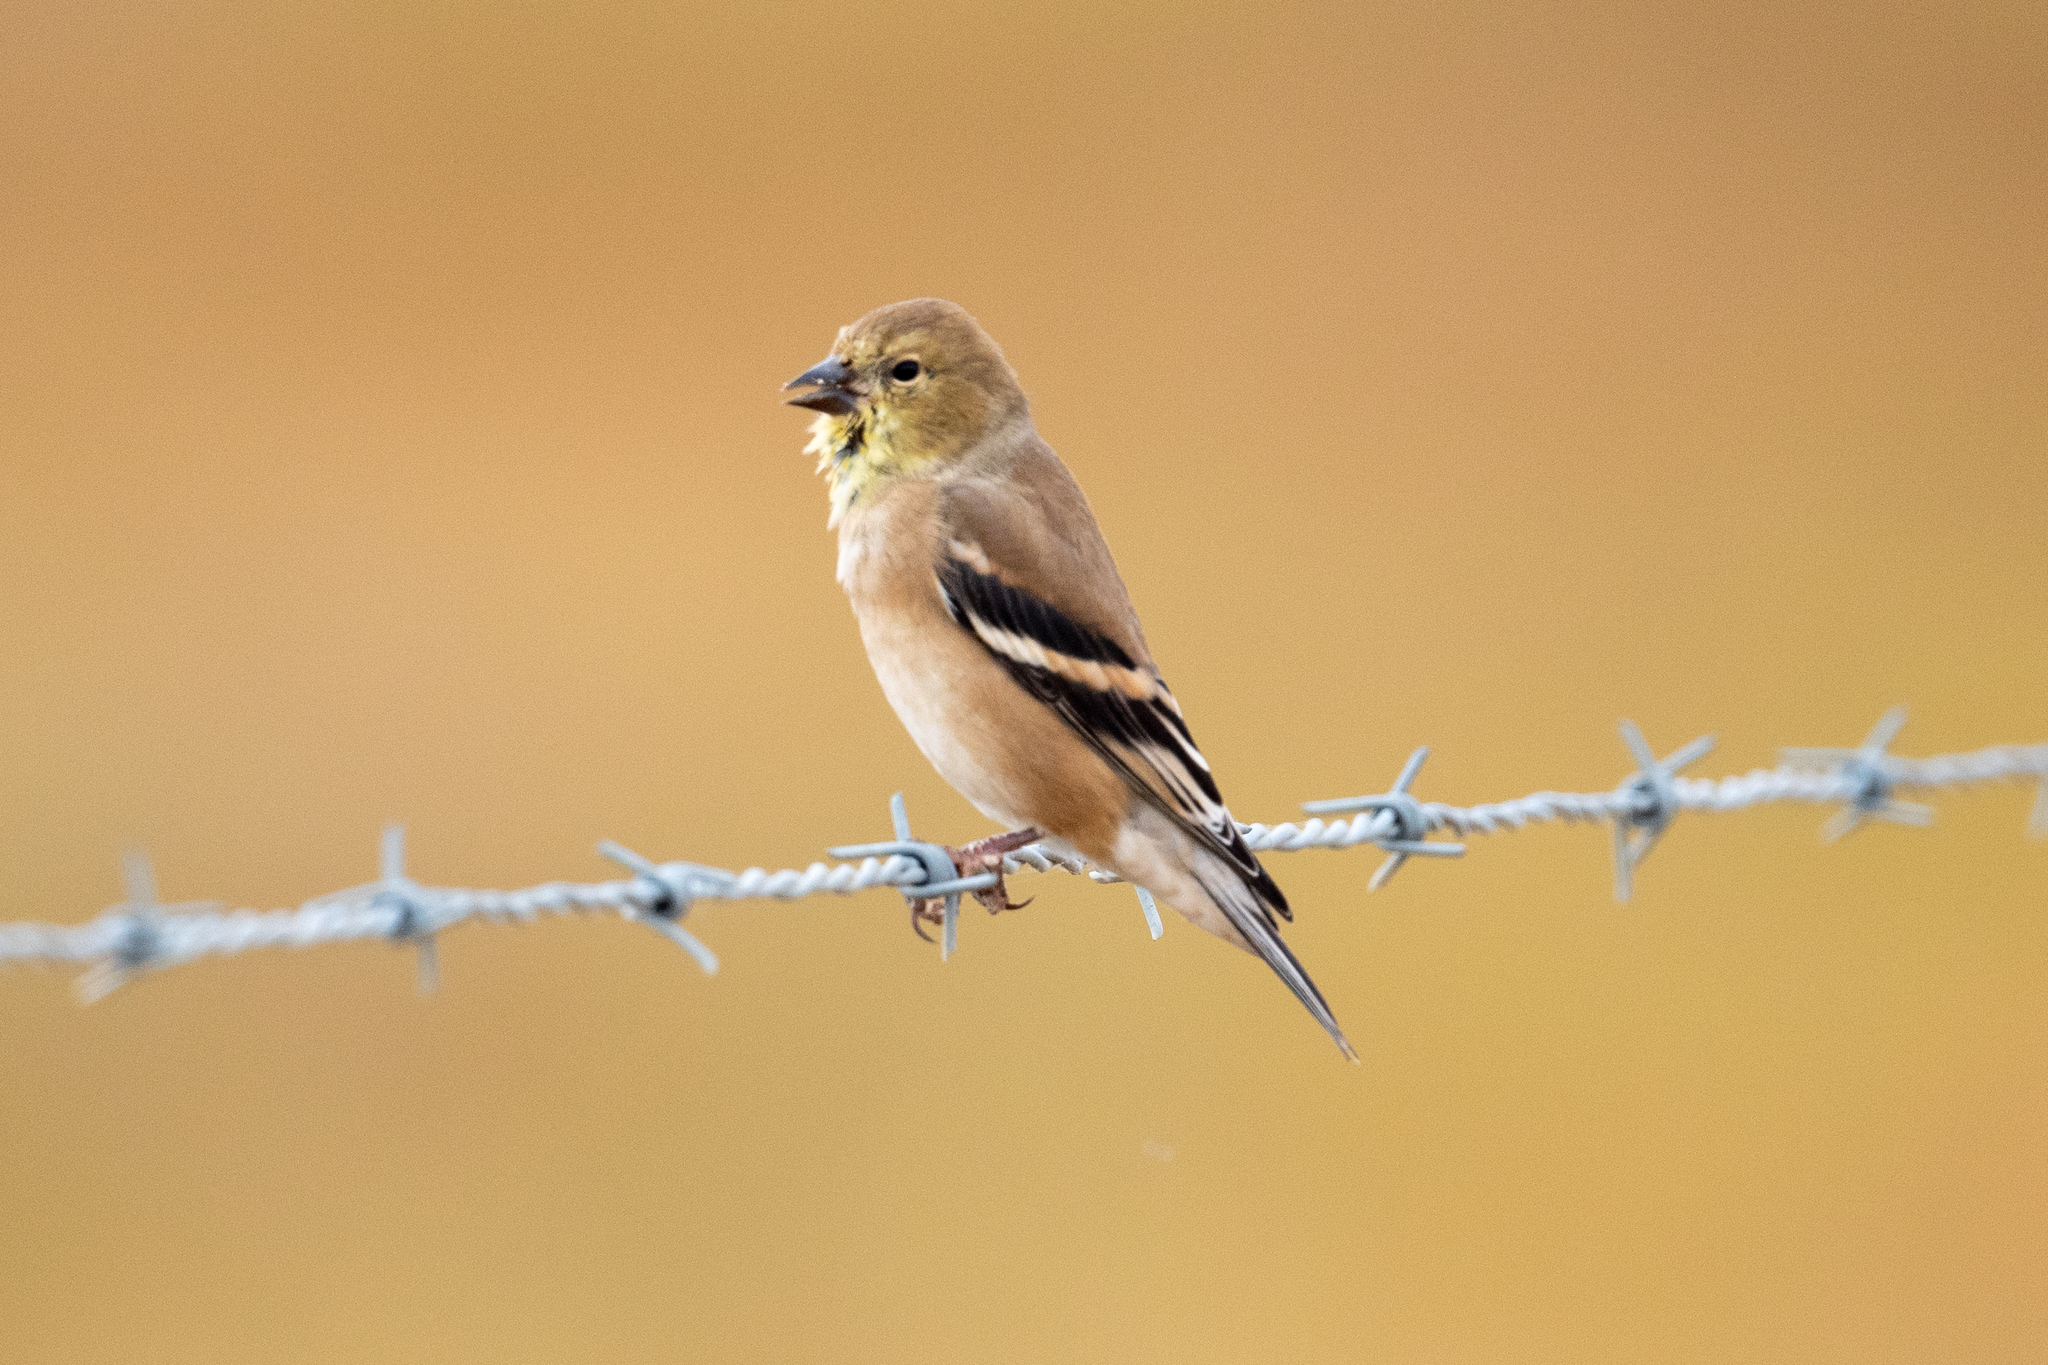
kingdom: Animalia
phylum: Chordata
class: Aves
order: Passeriformes
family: Fringillidae
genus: Spinus
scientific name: Spinus tristis
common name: American goldfinch
